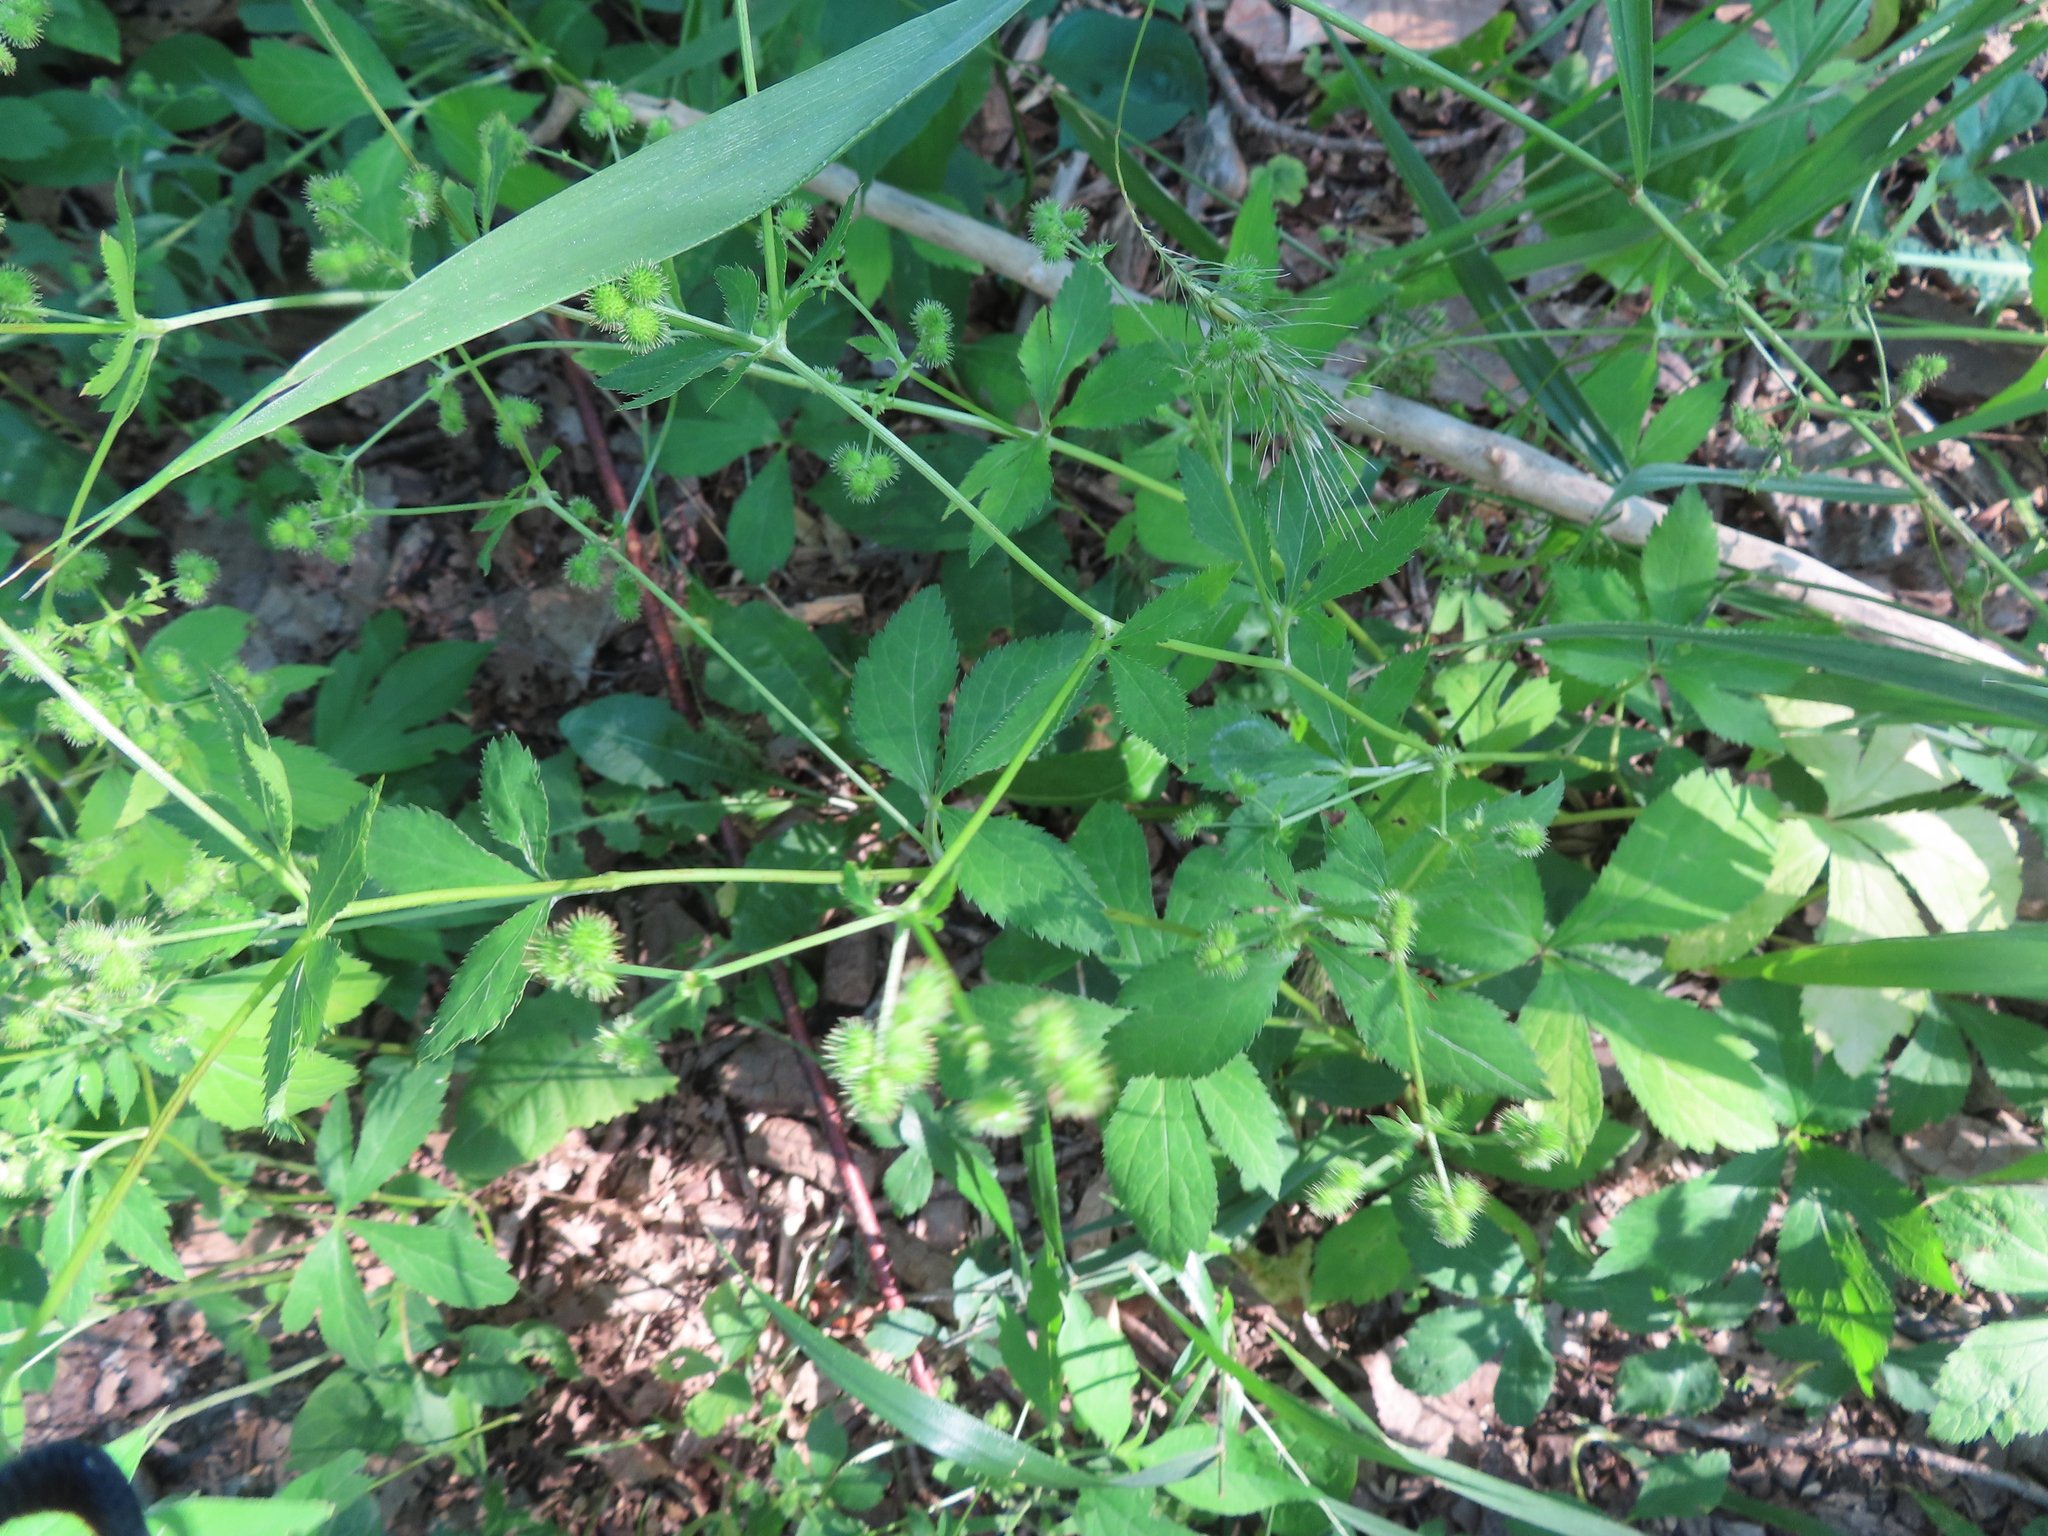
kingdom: Plantae
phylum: Tracheophyta
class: Magnoliopsida
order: Apiales
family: Apiaceae
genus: Sanicula
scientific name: Sanicula canadensis
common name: Canada sanicle
